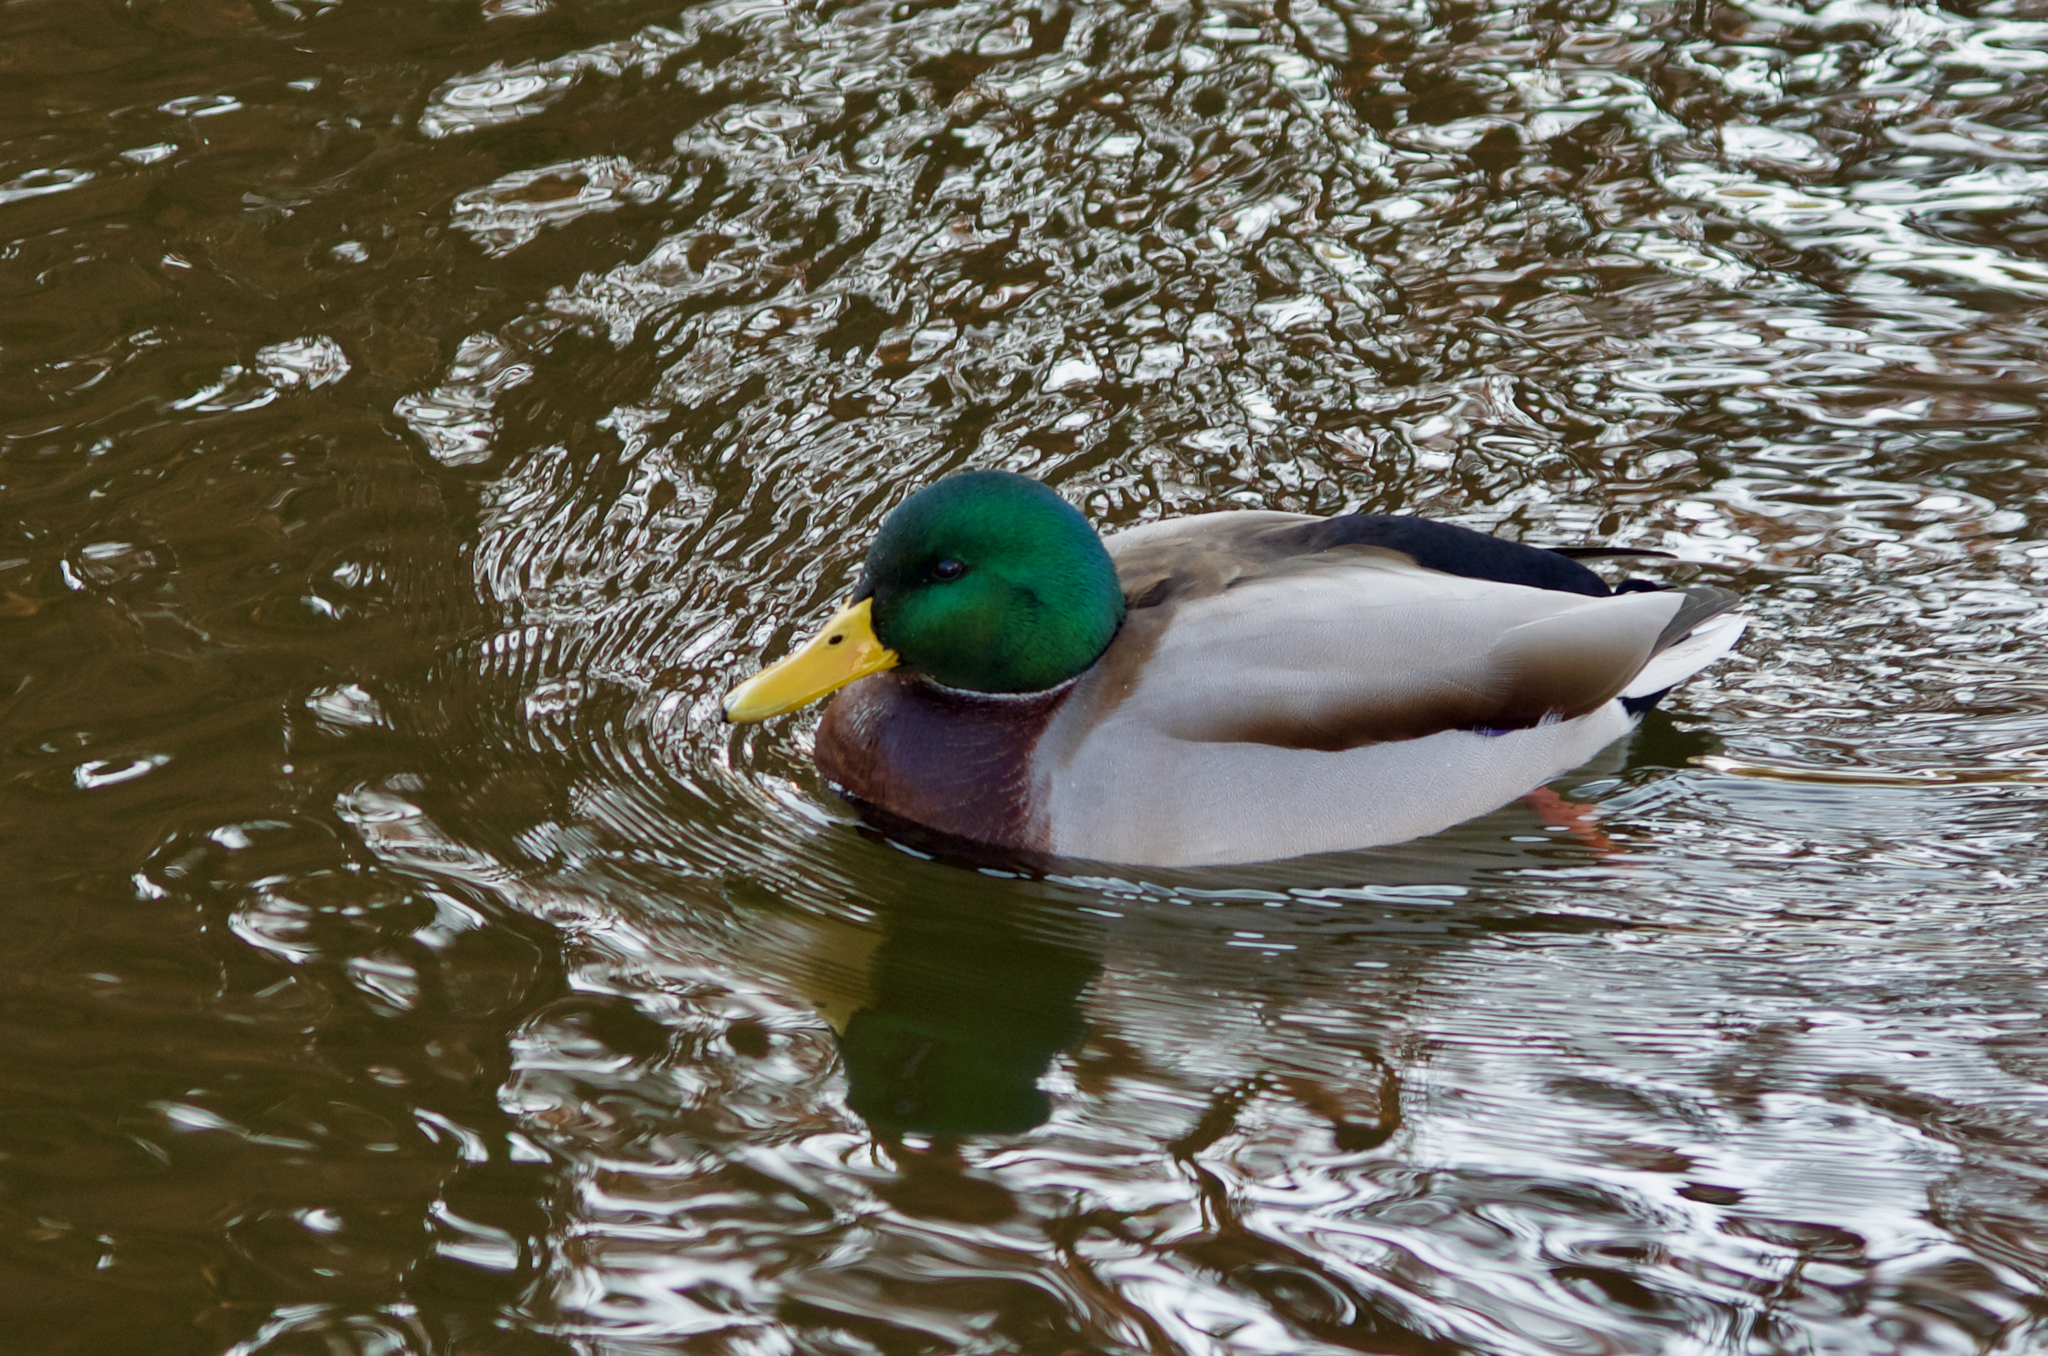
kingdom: Animalia
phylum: Chordata
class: Aves
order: Anseriformes
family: Anatidae
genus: Anas
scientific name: Anas platyrhynchos
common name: Mallard
